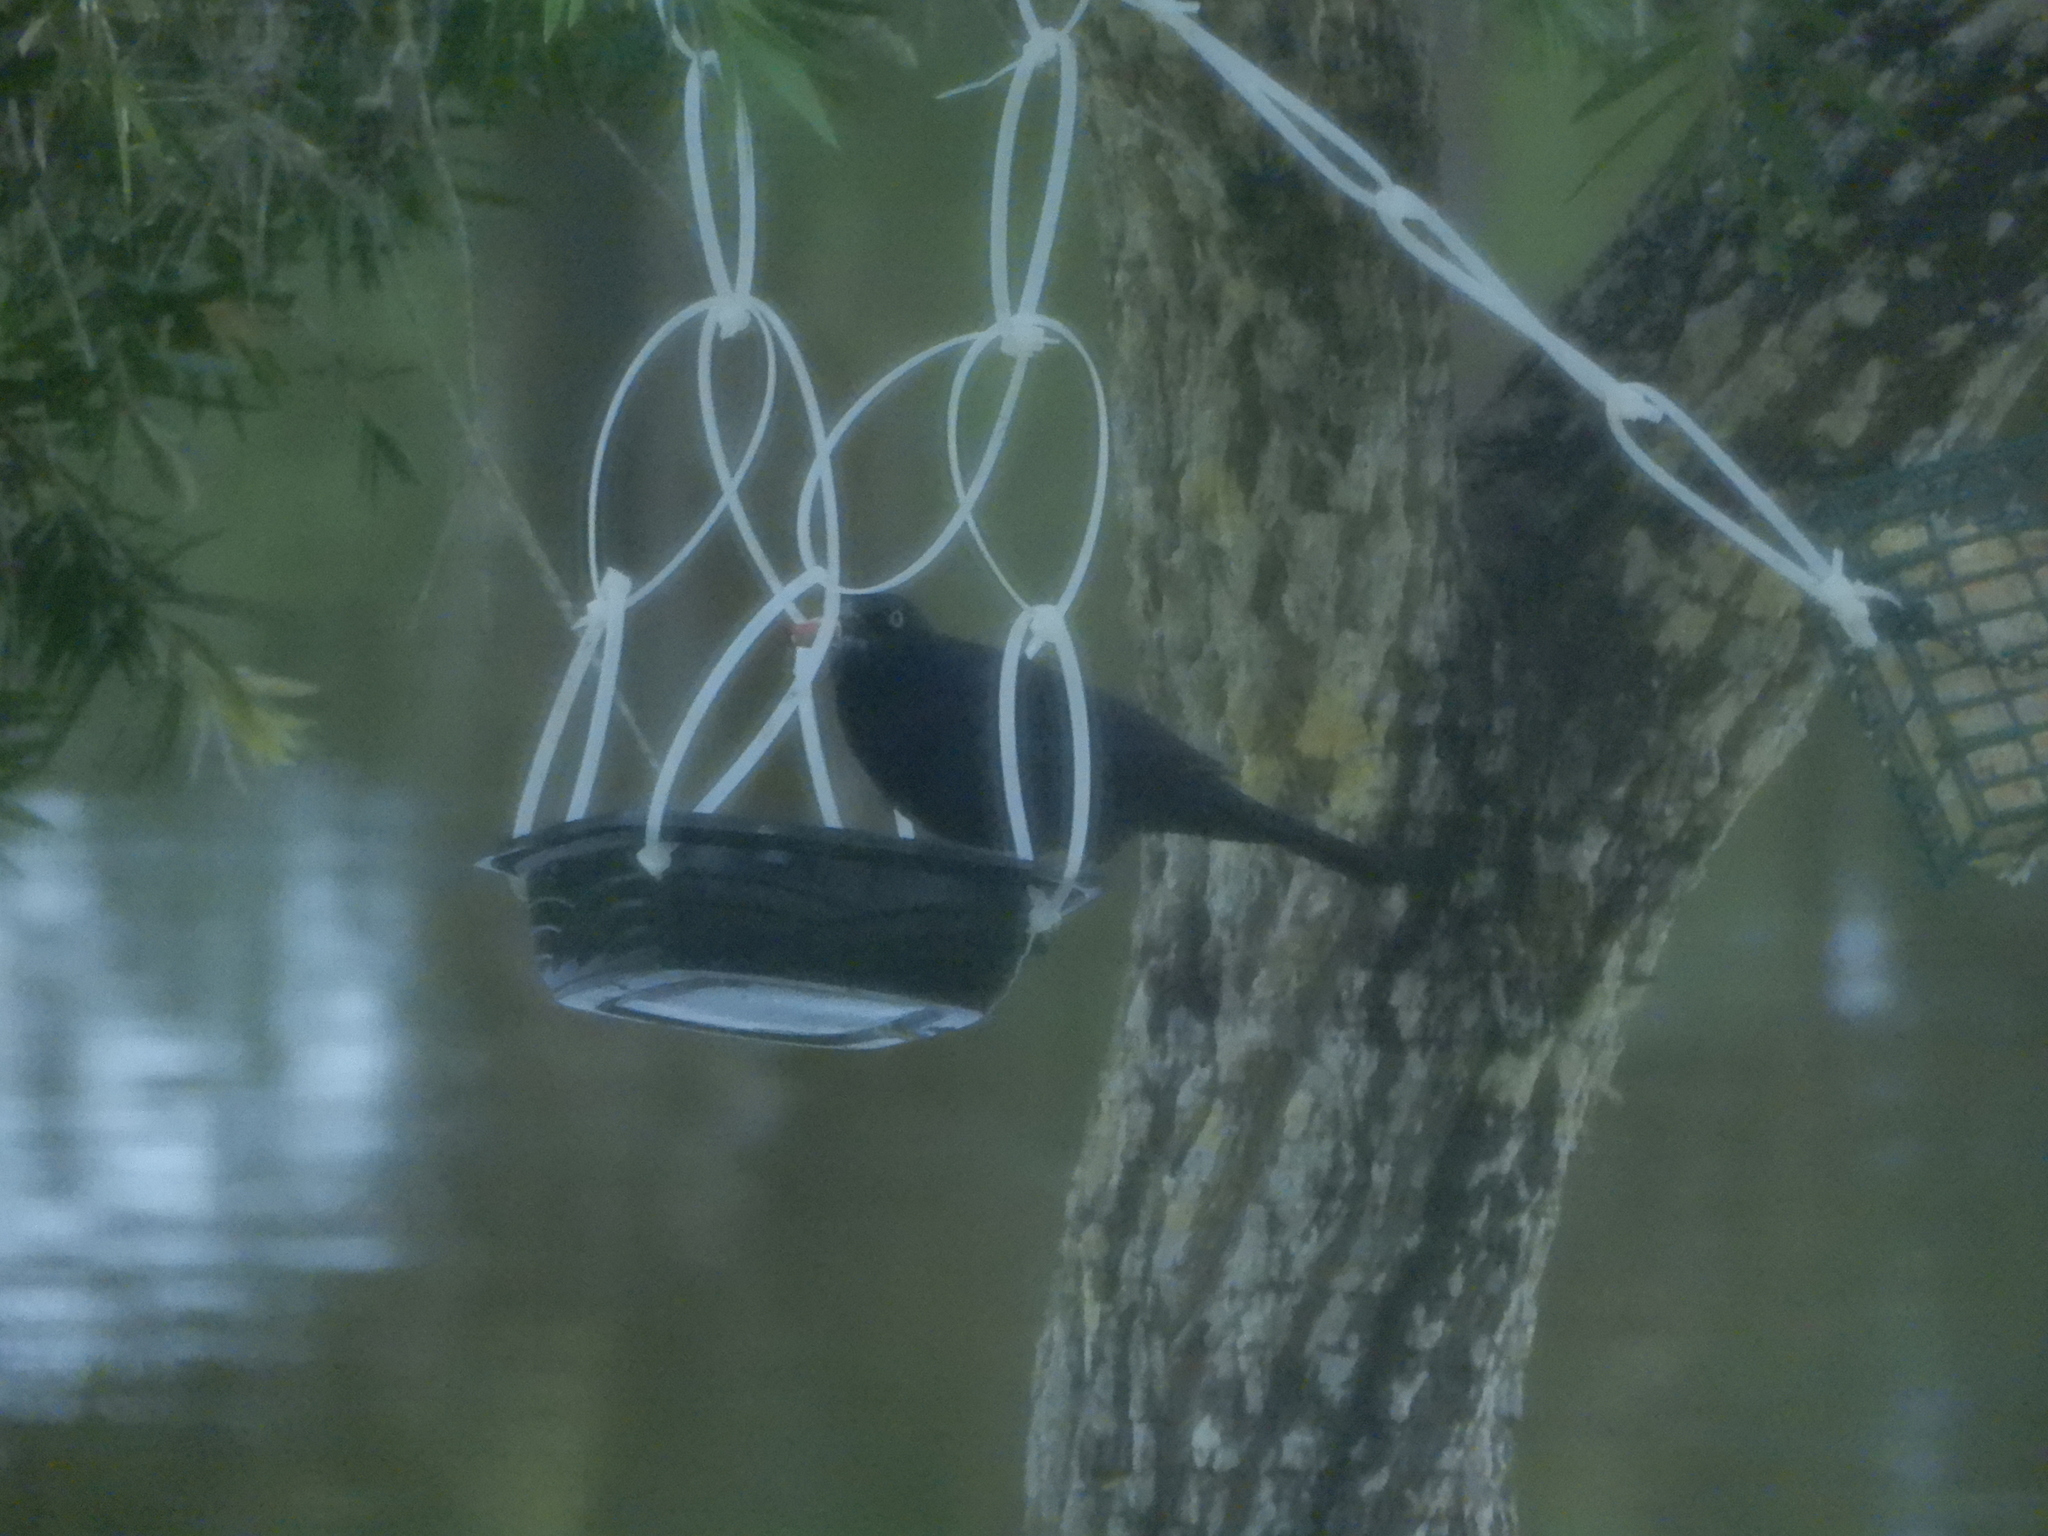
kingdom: Animalia
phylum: Chordata
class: Aves
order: Passeriformes
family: Icteridae
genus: Quiscalus
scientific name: Quiscalus quiscula
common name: Common grackle
